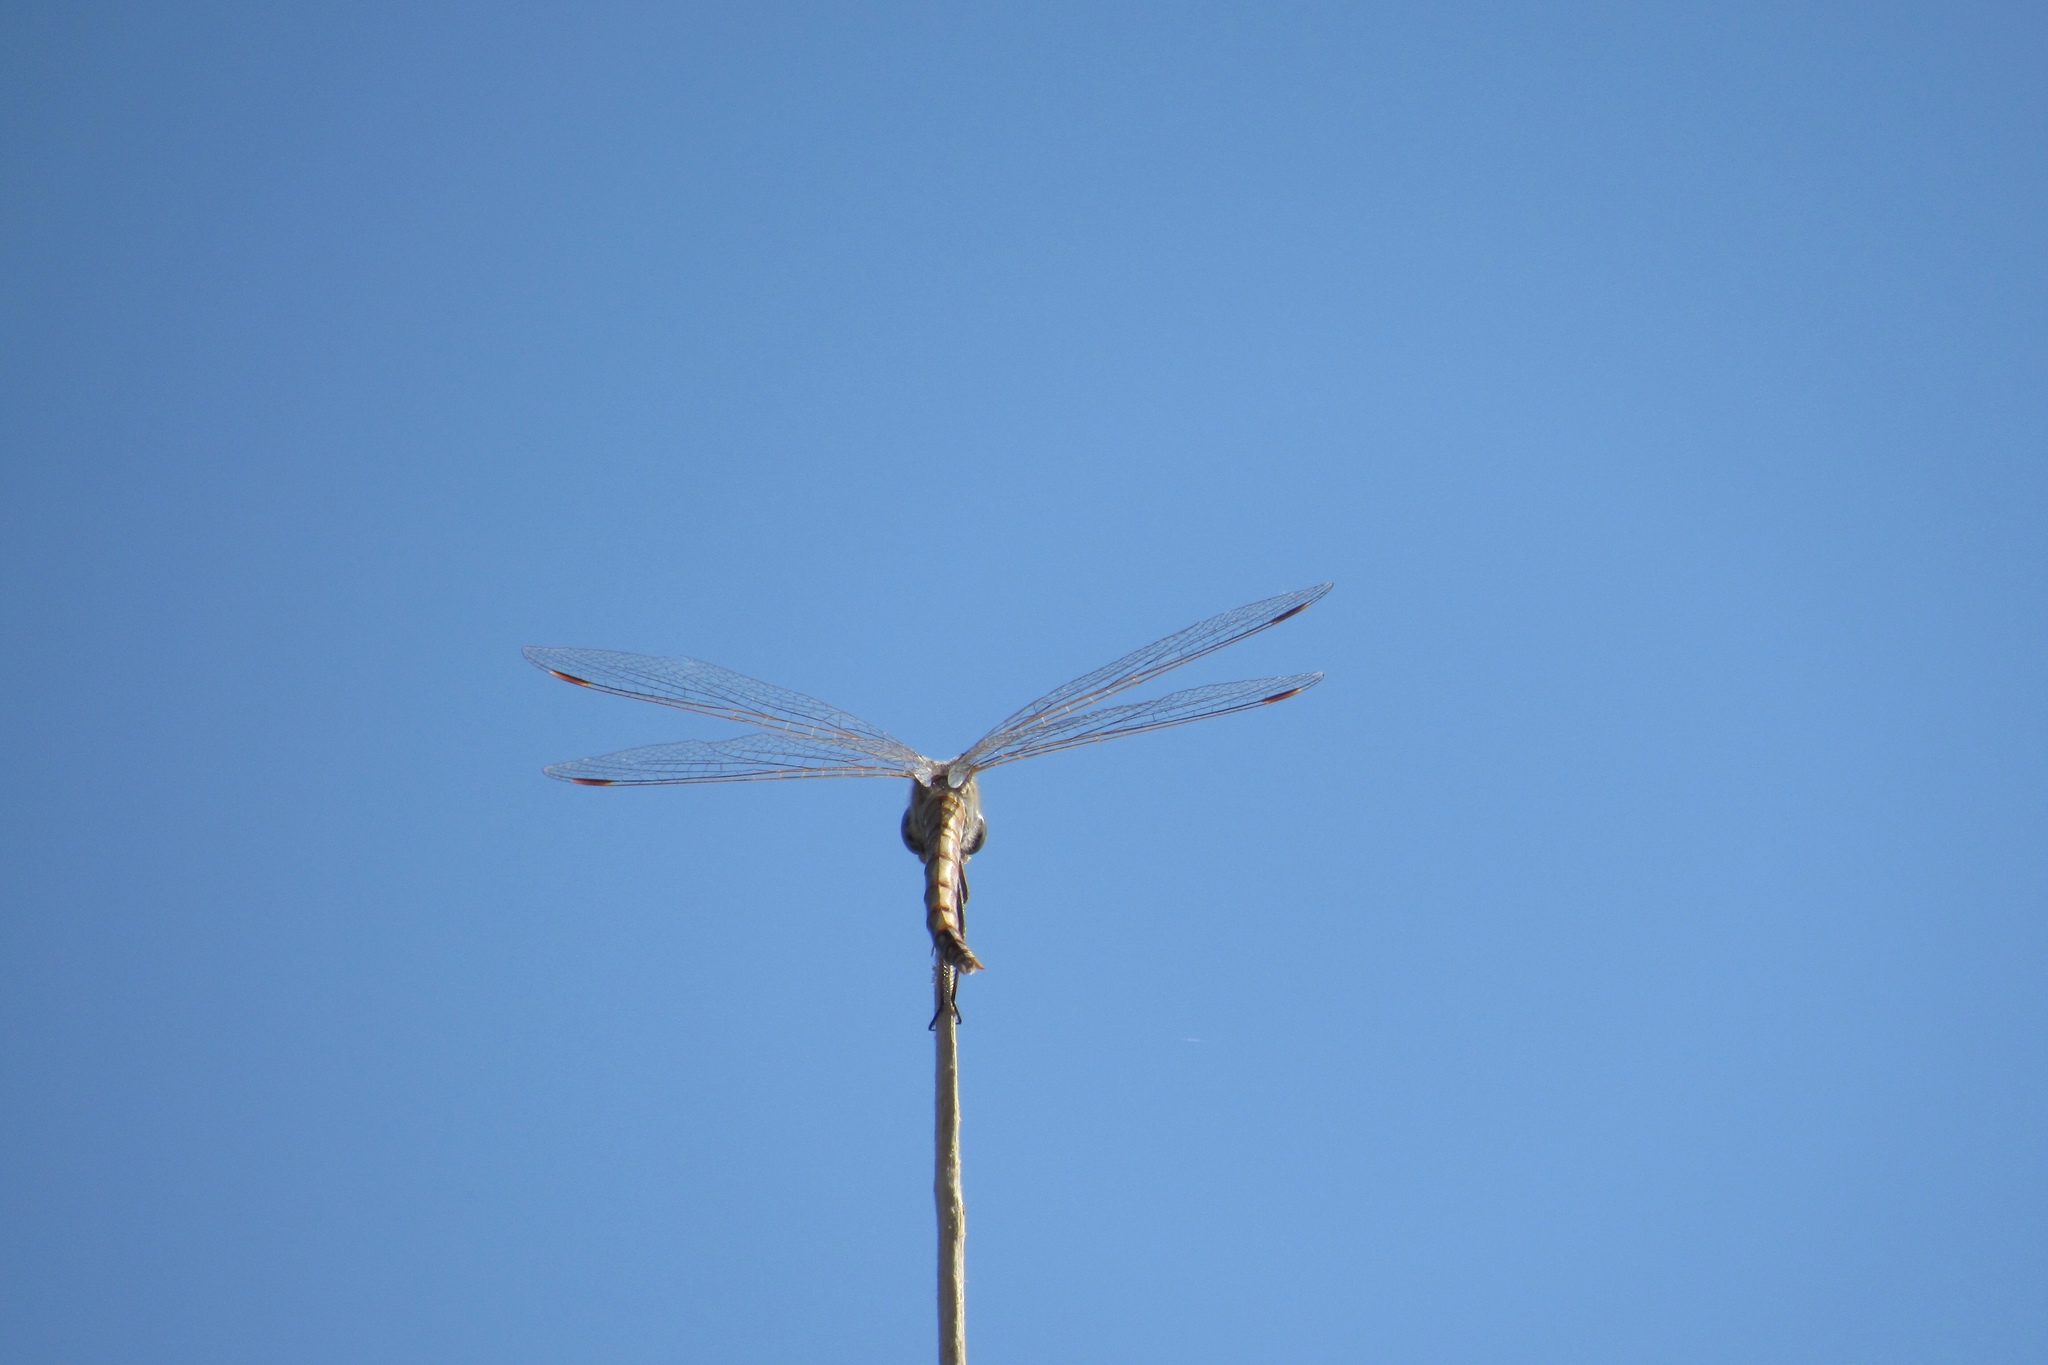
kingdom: Animalia
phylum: Arthropoda
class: Insecta
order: Odonata
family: Libellulidae
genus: Sympetrum
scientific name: Sympetrum corruptum
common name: Variegated meadowhawk
